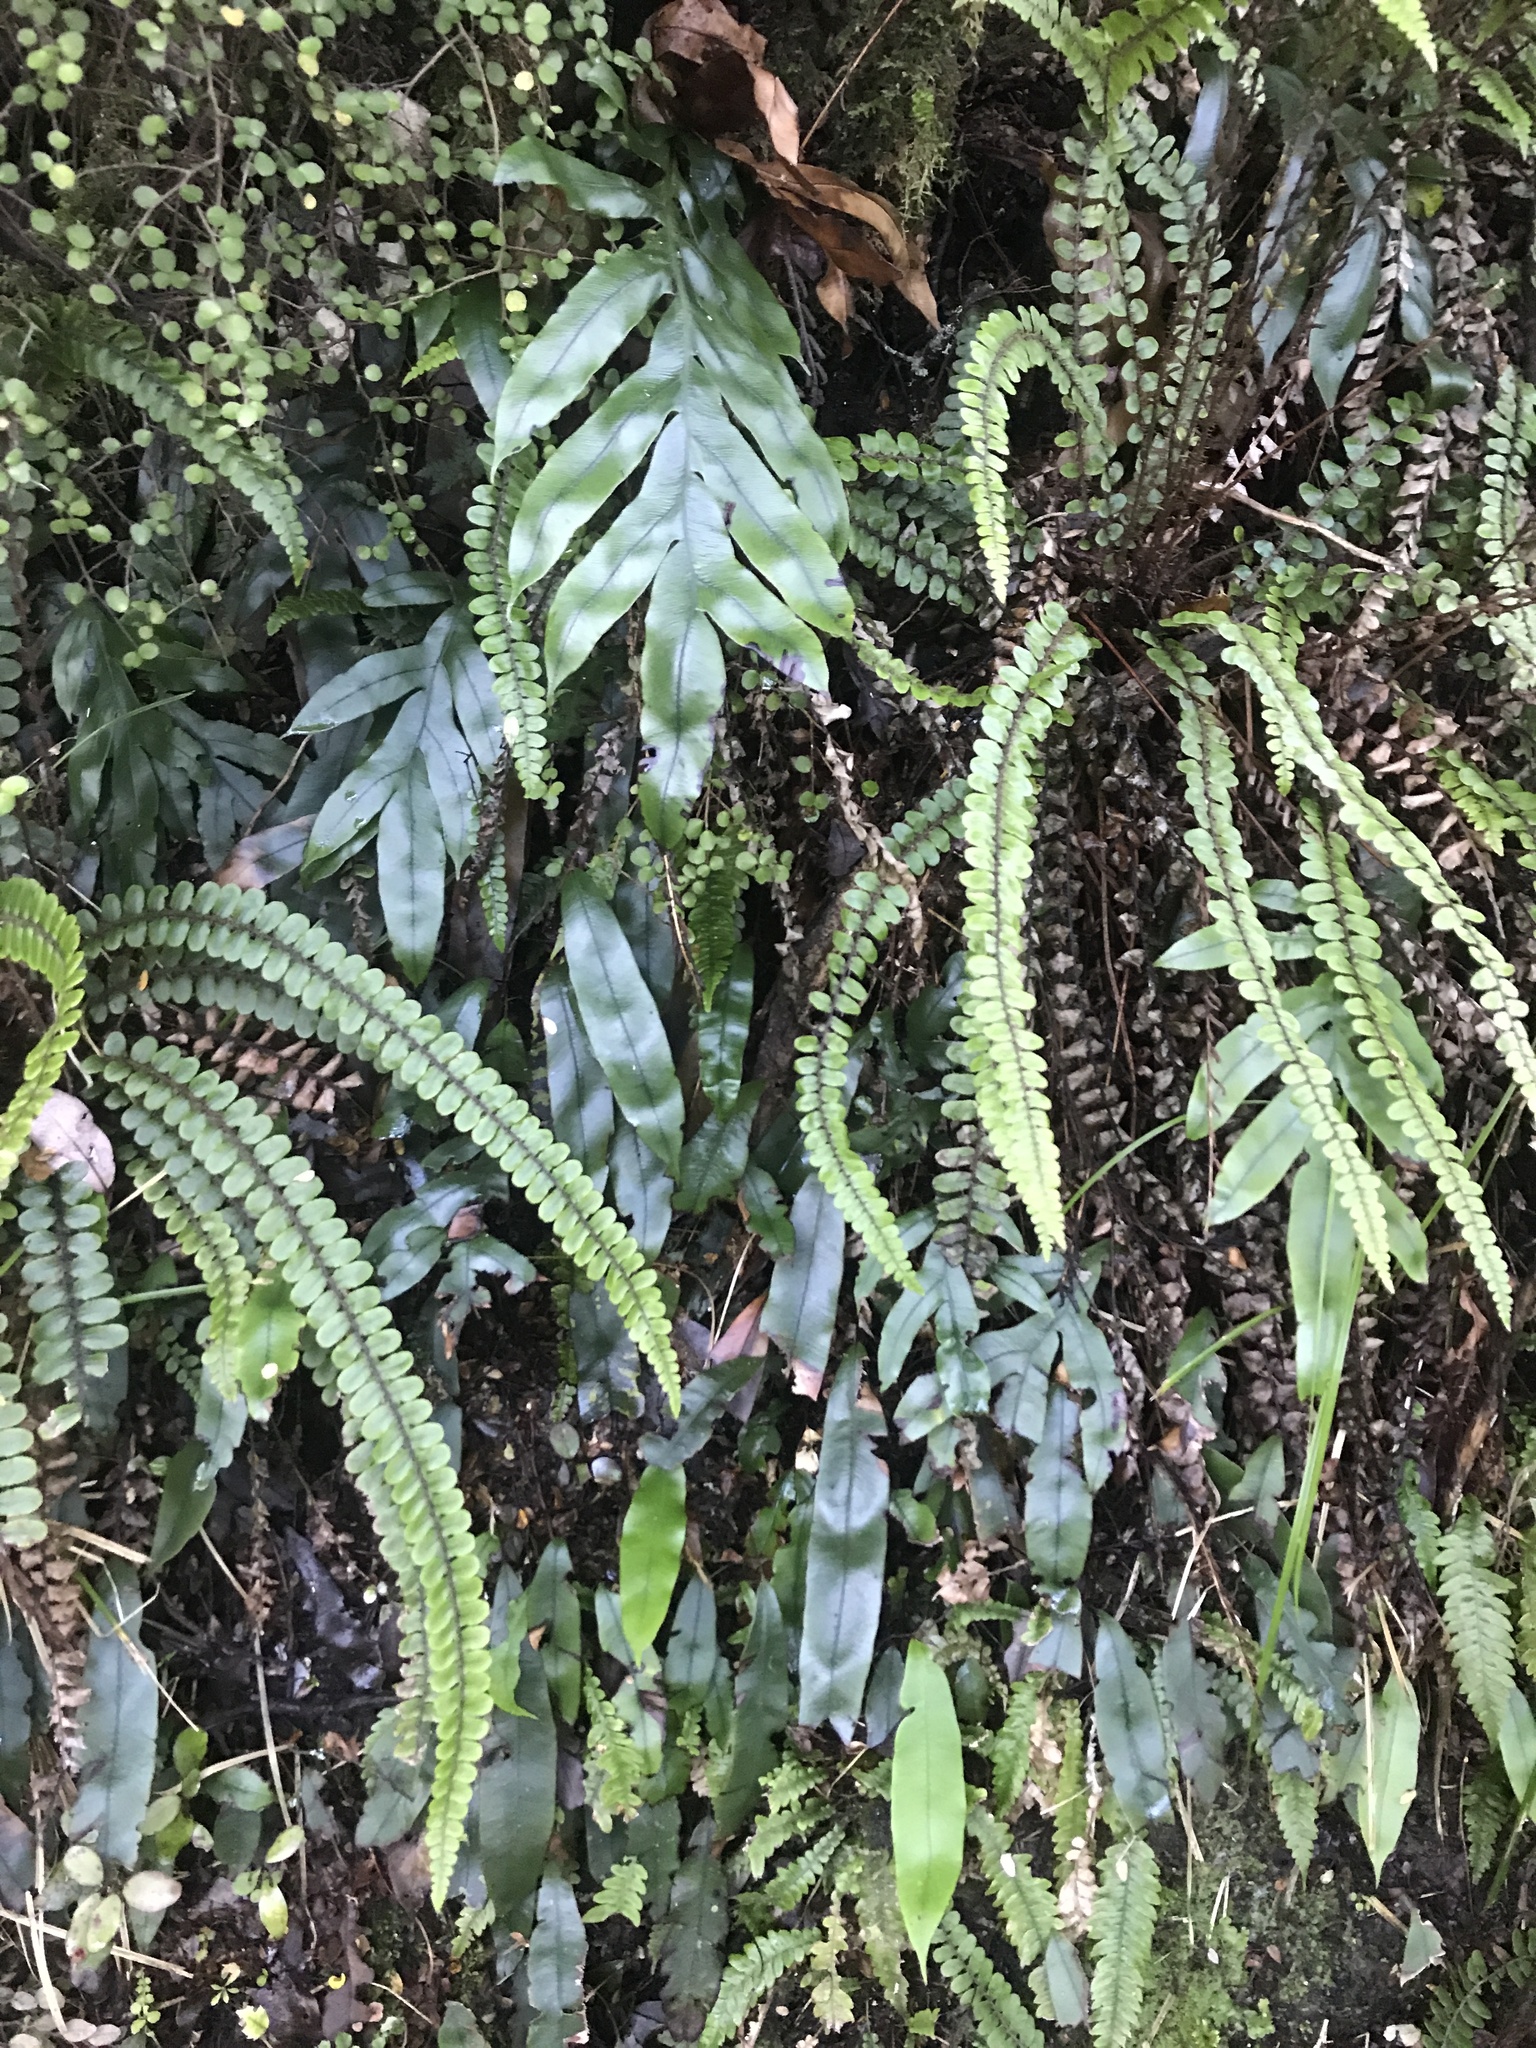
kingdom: Plantae
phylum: Tracheophyta
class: Polypodiopsida
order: Polypodiales
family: Blechnaceae
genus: Austroblechnum
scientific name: Austroblechnum colensoi
